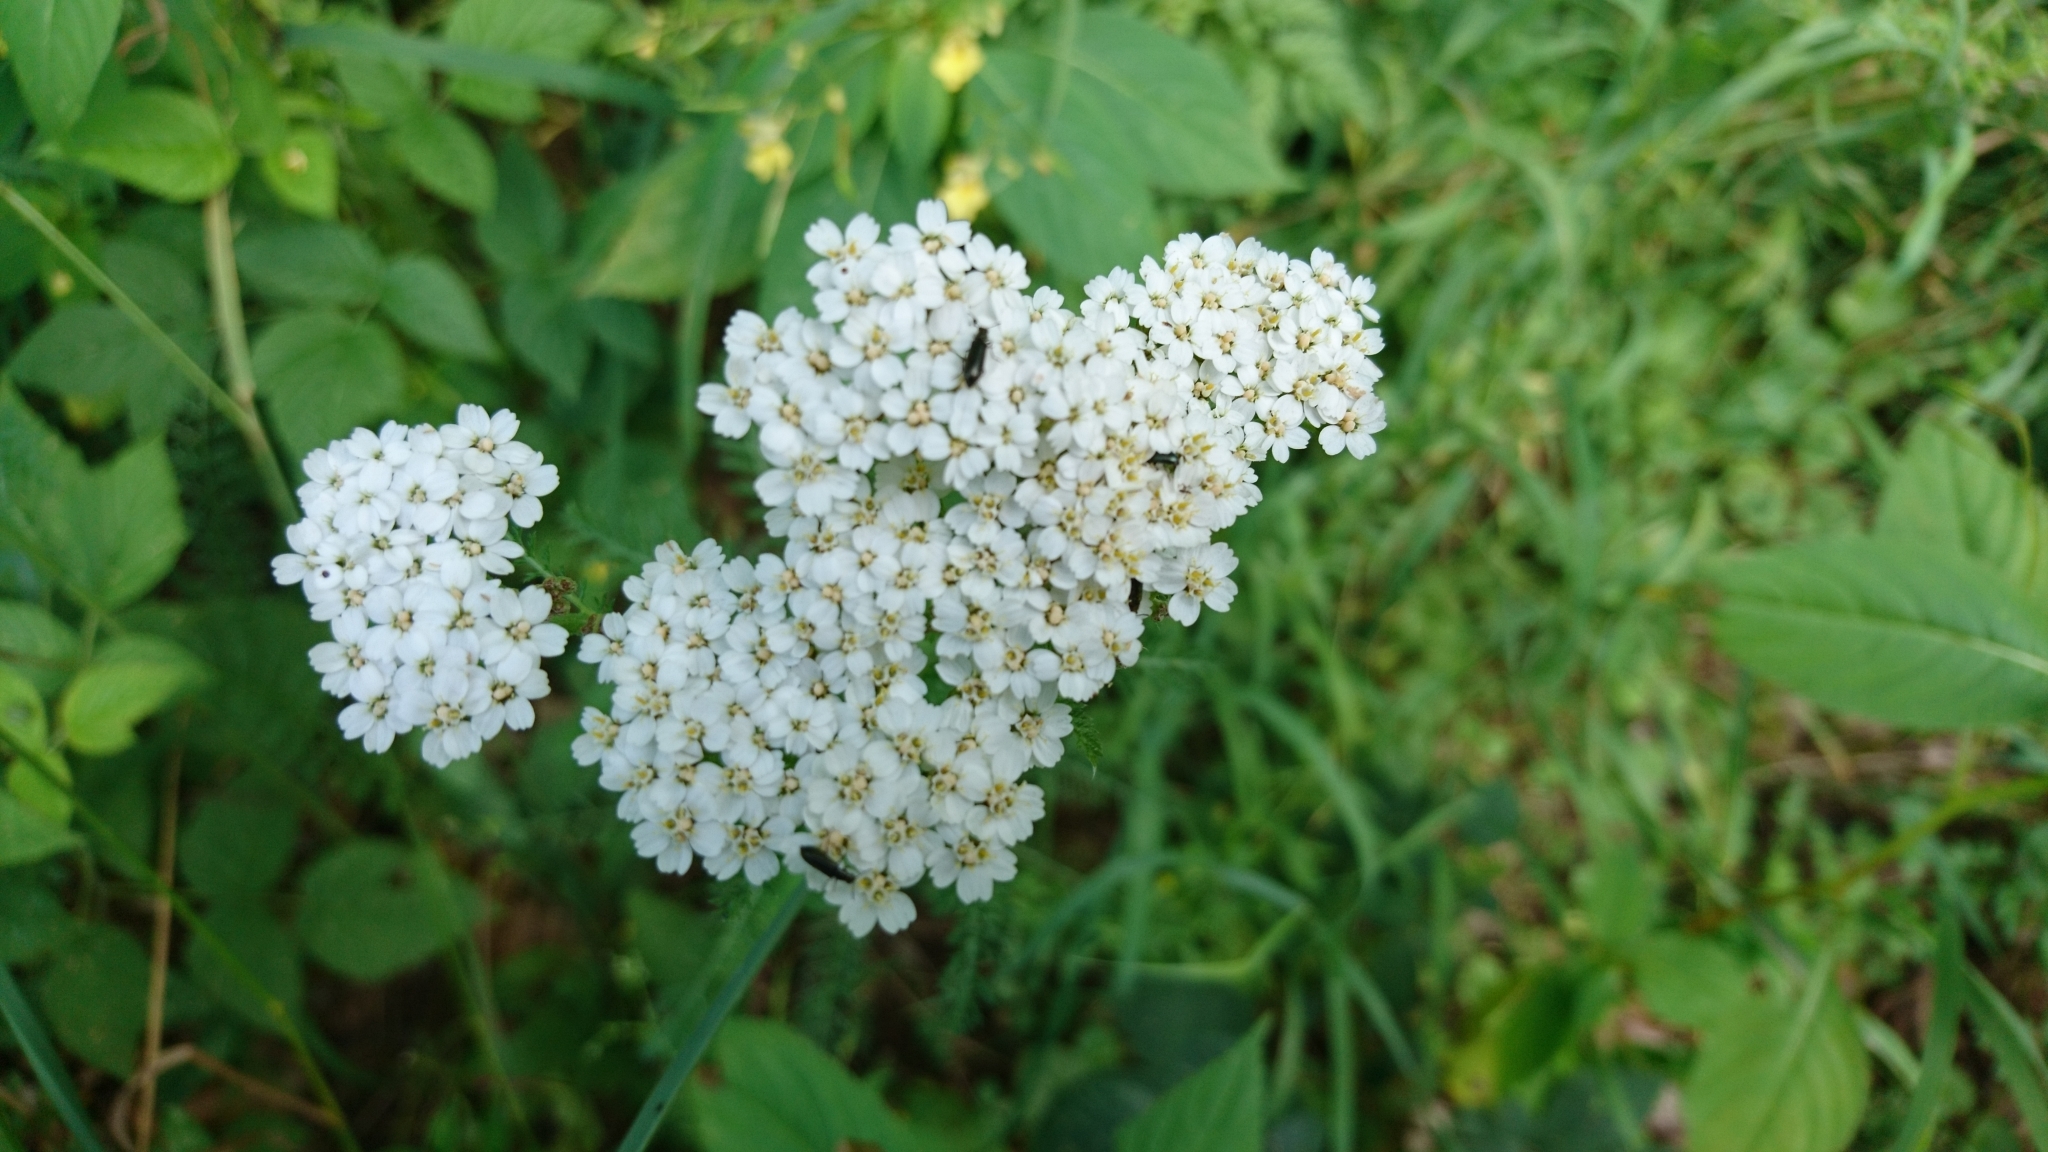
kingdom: Plantae
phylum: Tracheophyta
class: Magnoliopsida
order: Asterales
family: Asteraceae
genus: Achillea
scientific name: Achillea millefolium
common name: Yarrow
